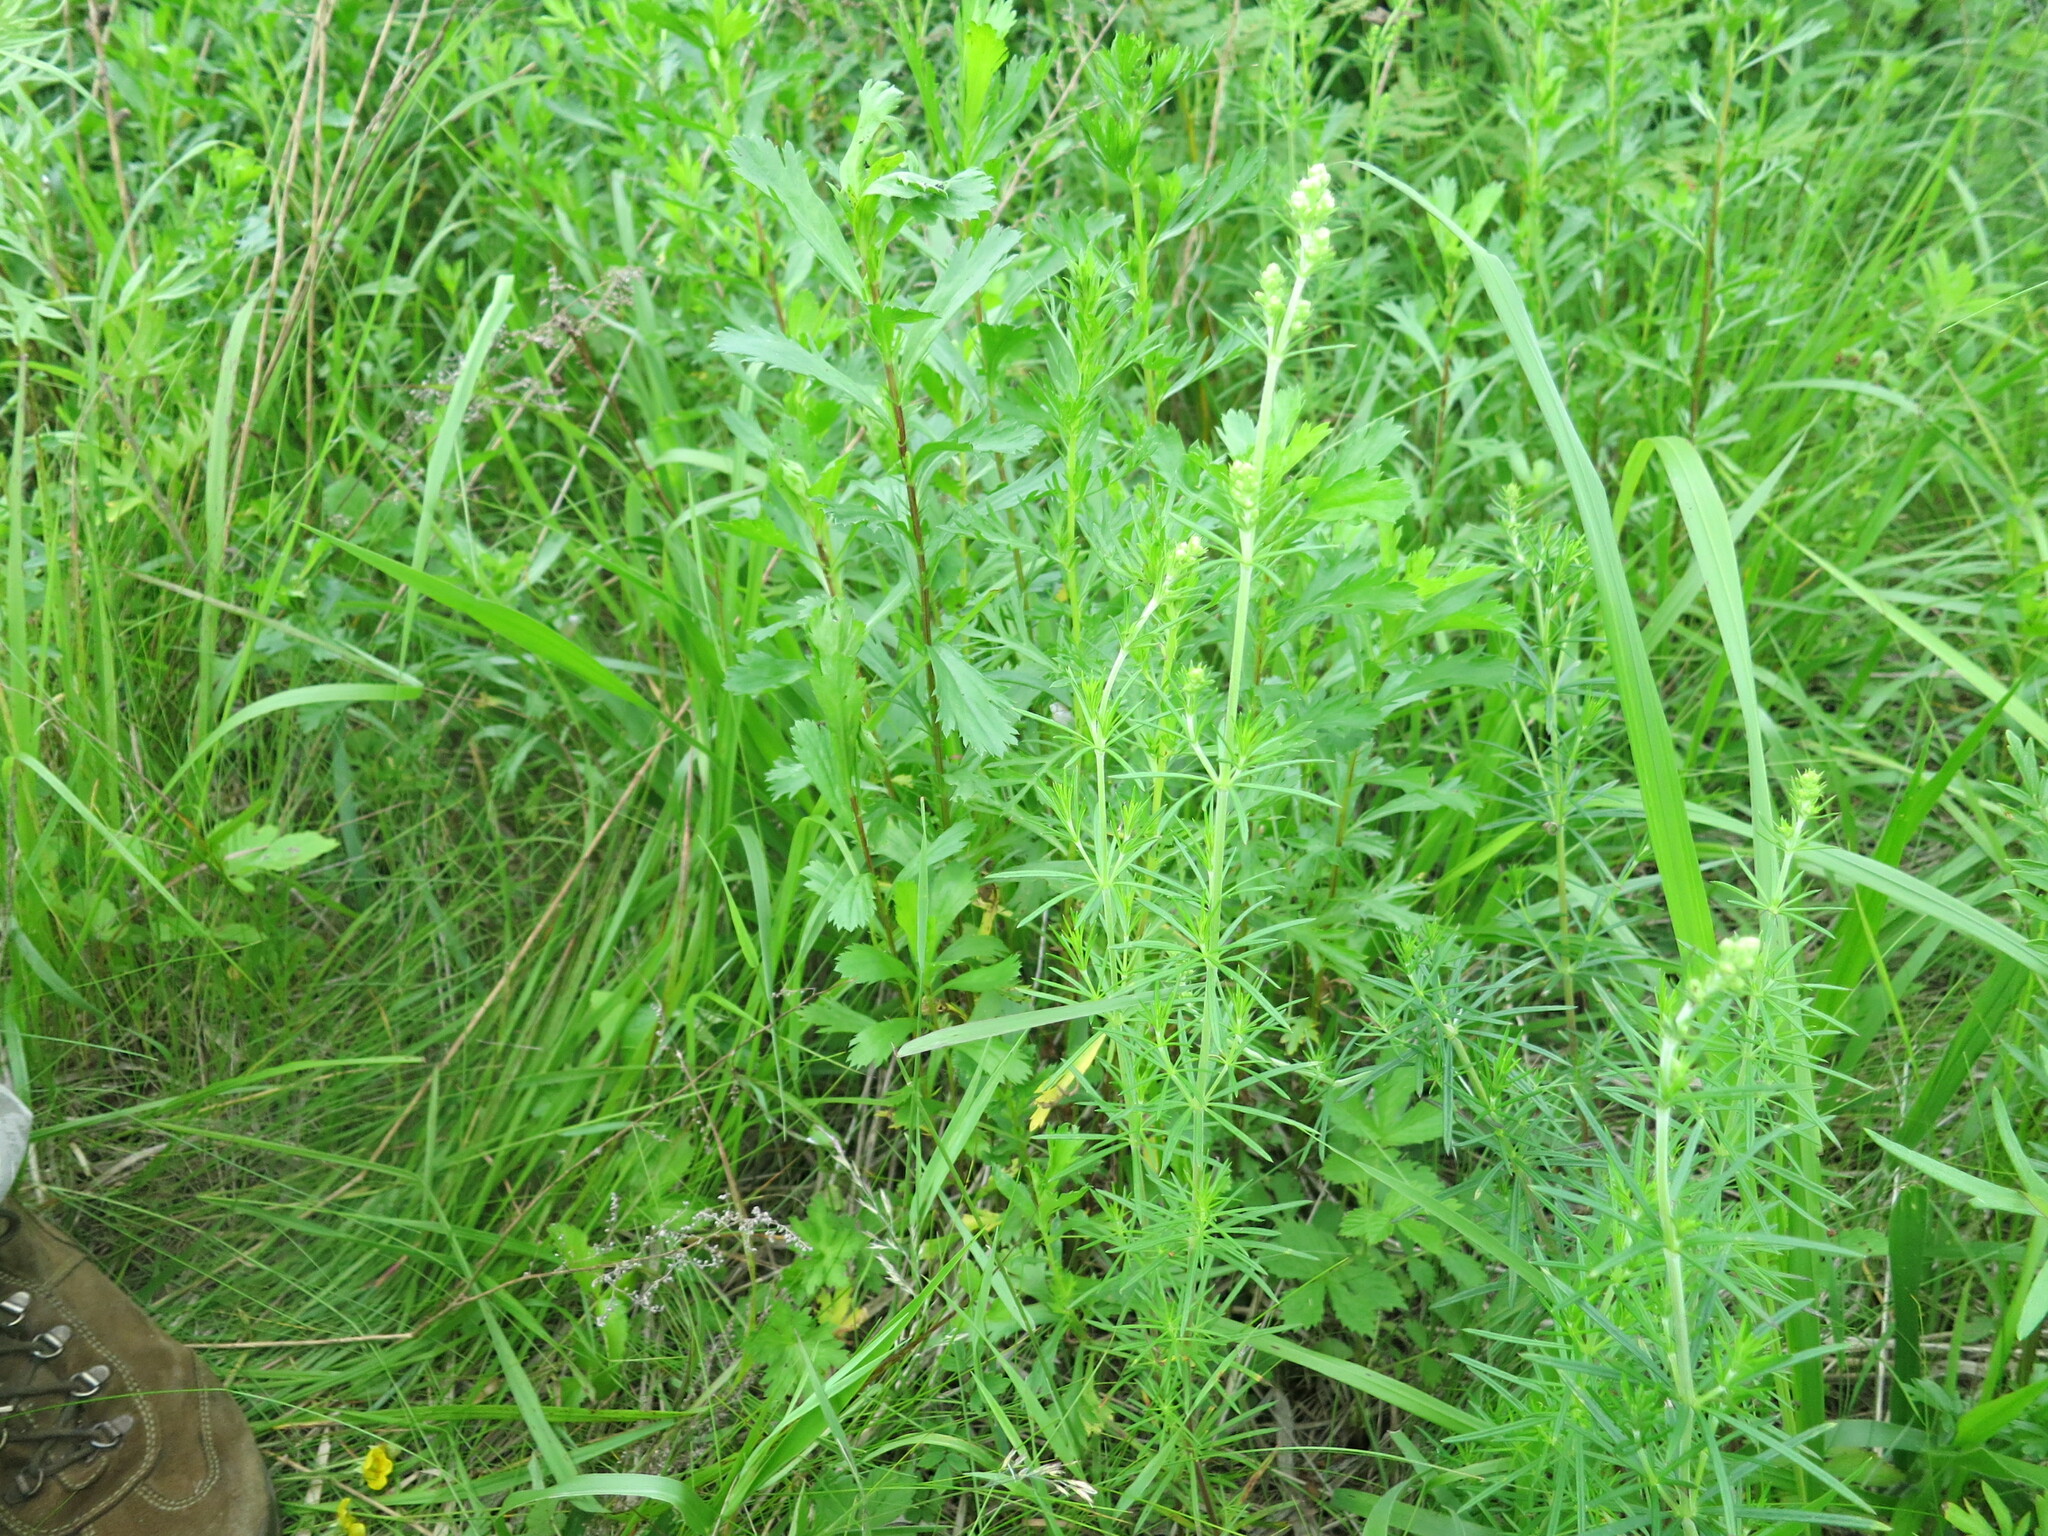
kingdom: Plantae
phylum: Tracheophyta
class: Magnoliopsida
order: Gentianales
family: Rubiaceae
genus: Galium
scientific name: Galium verum
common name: Lady's bedstraw
